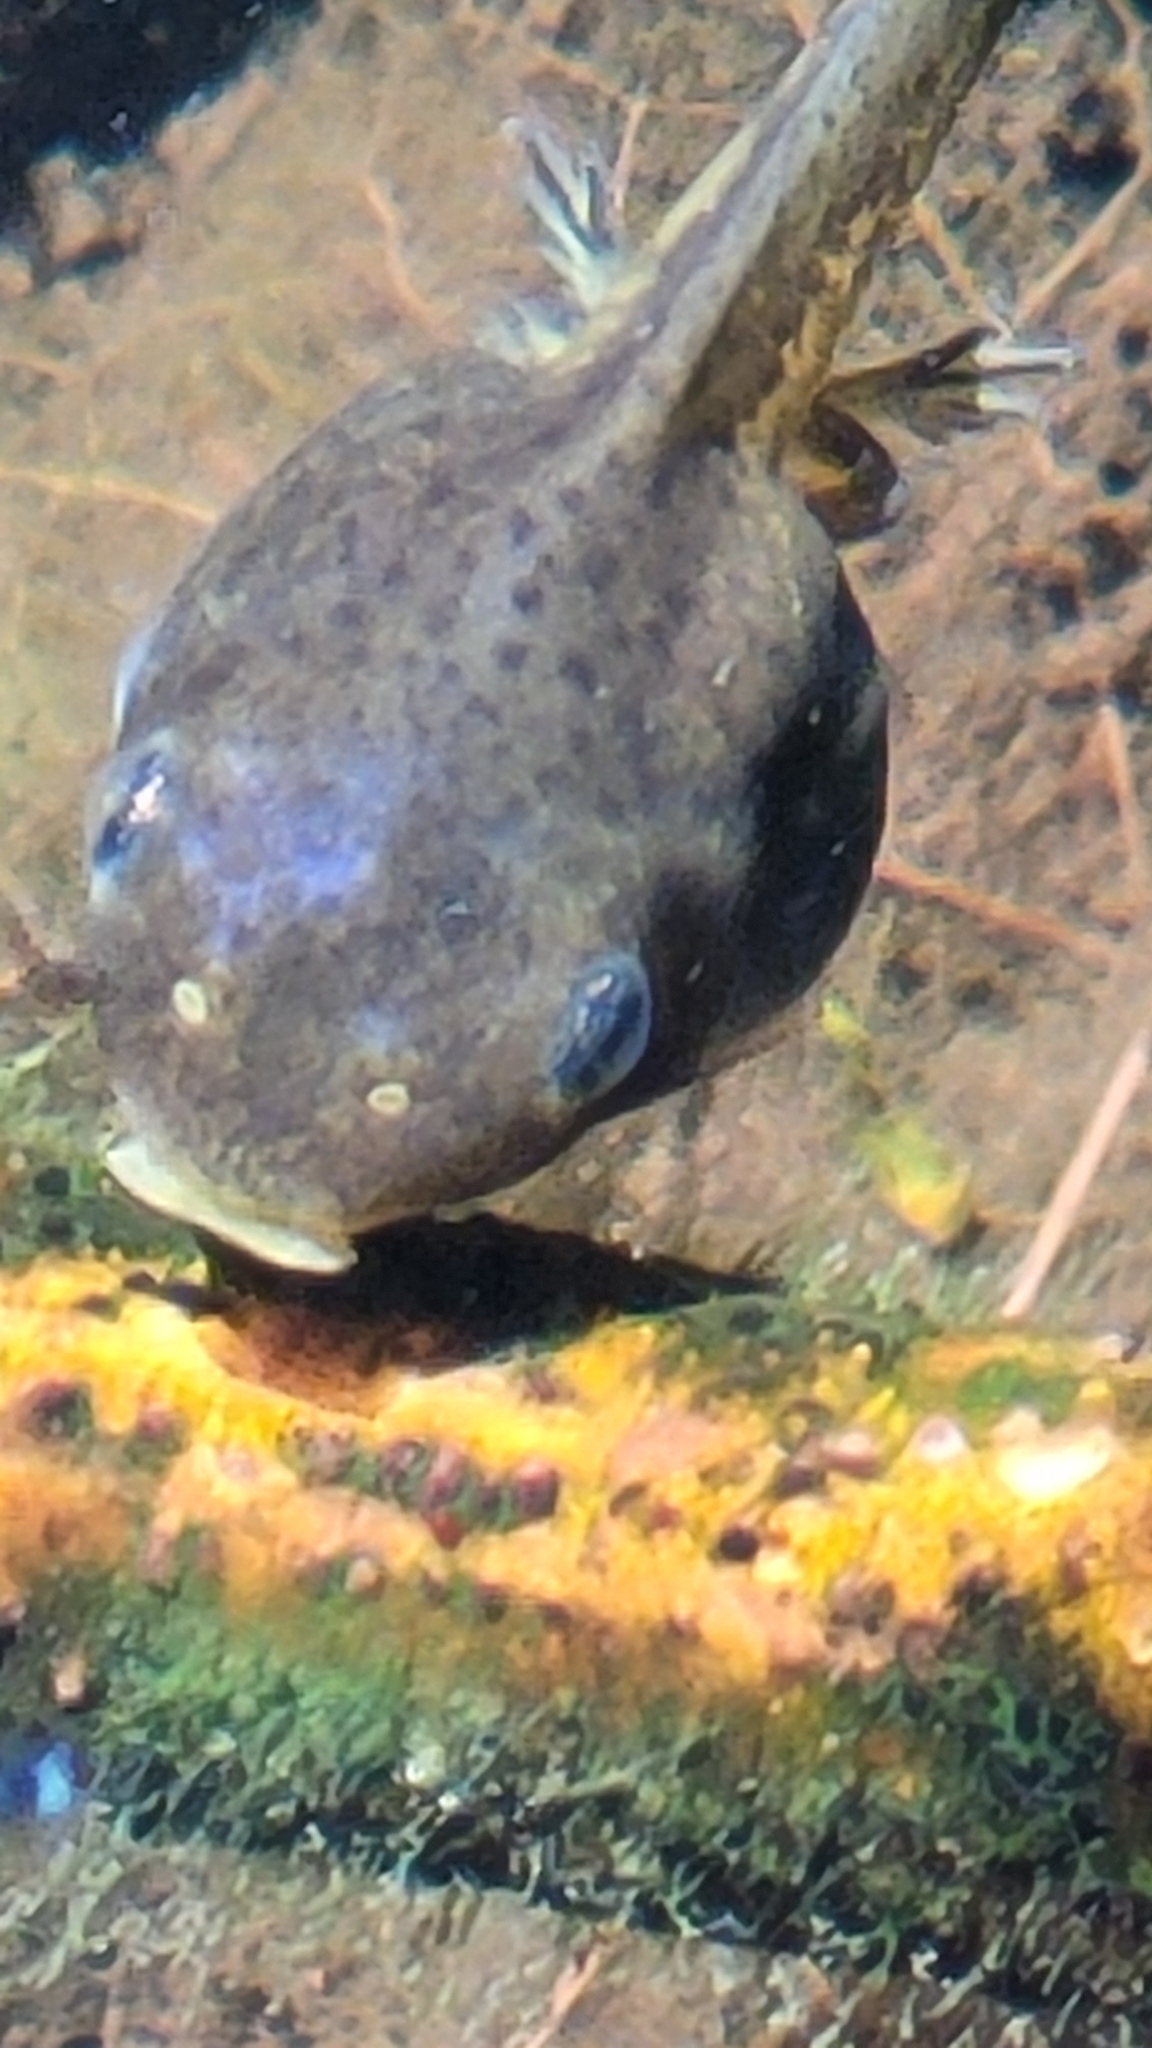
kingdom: Animalia
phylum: Chordata
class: Amphibia
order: Anura
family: Hylidae
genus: Pseudacris
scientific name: Pseudacris regilla
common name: Pacific chorus frog
